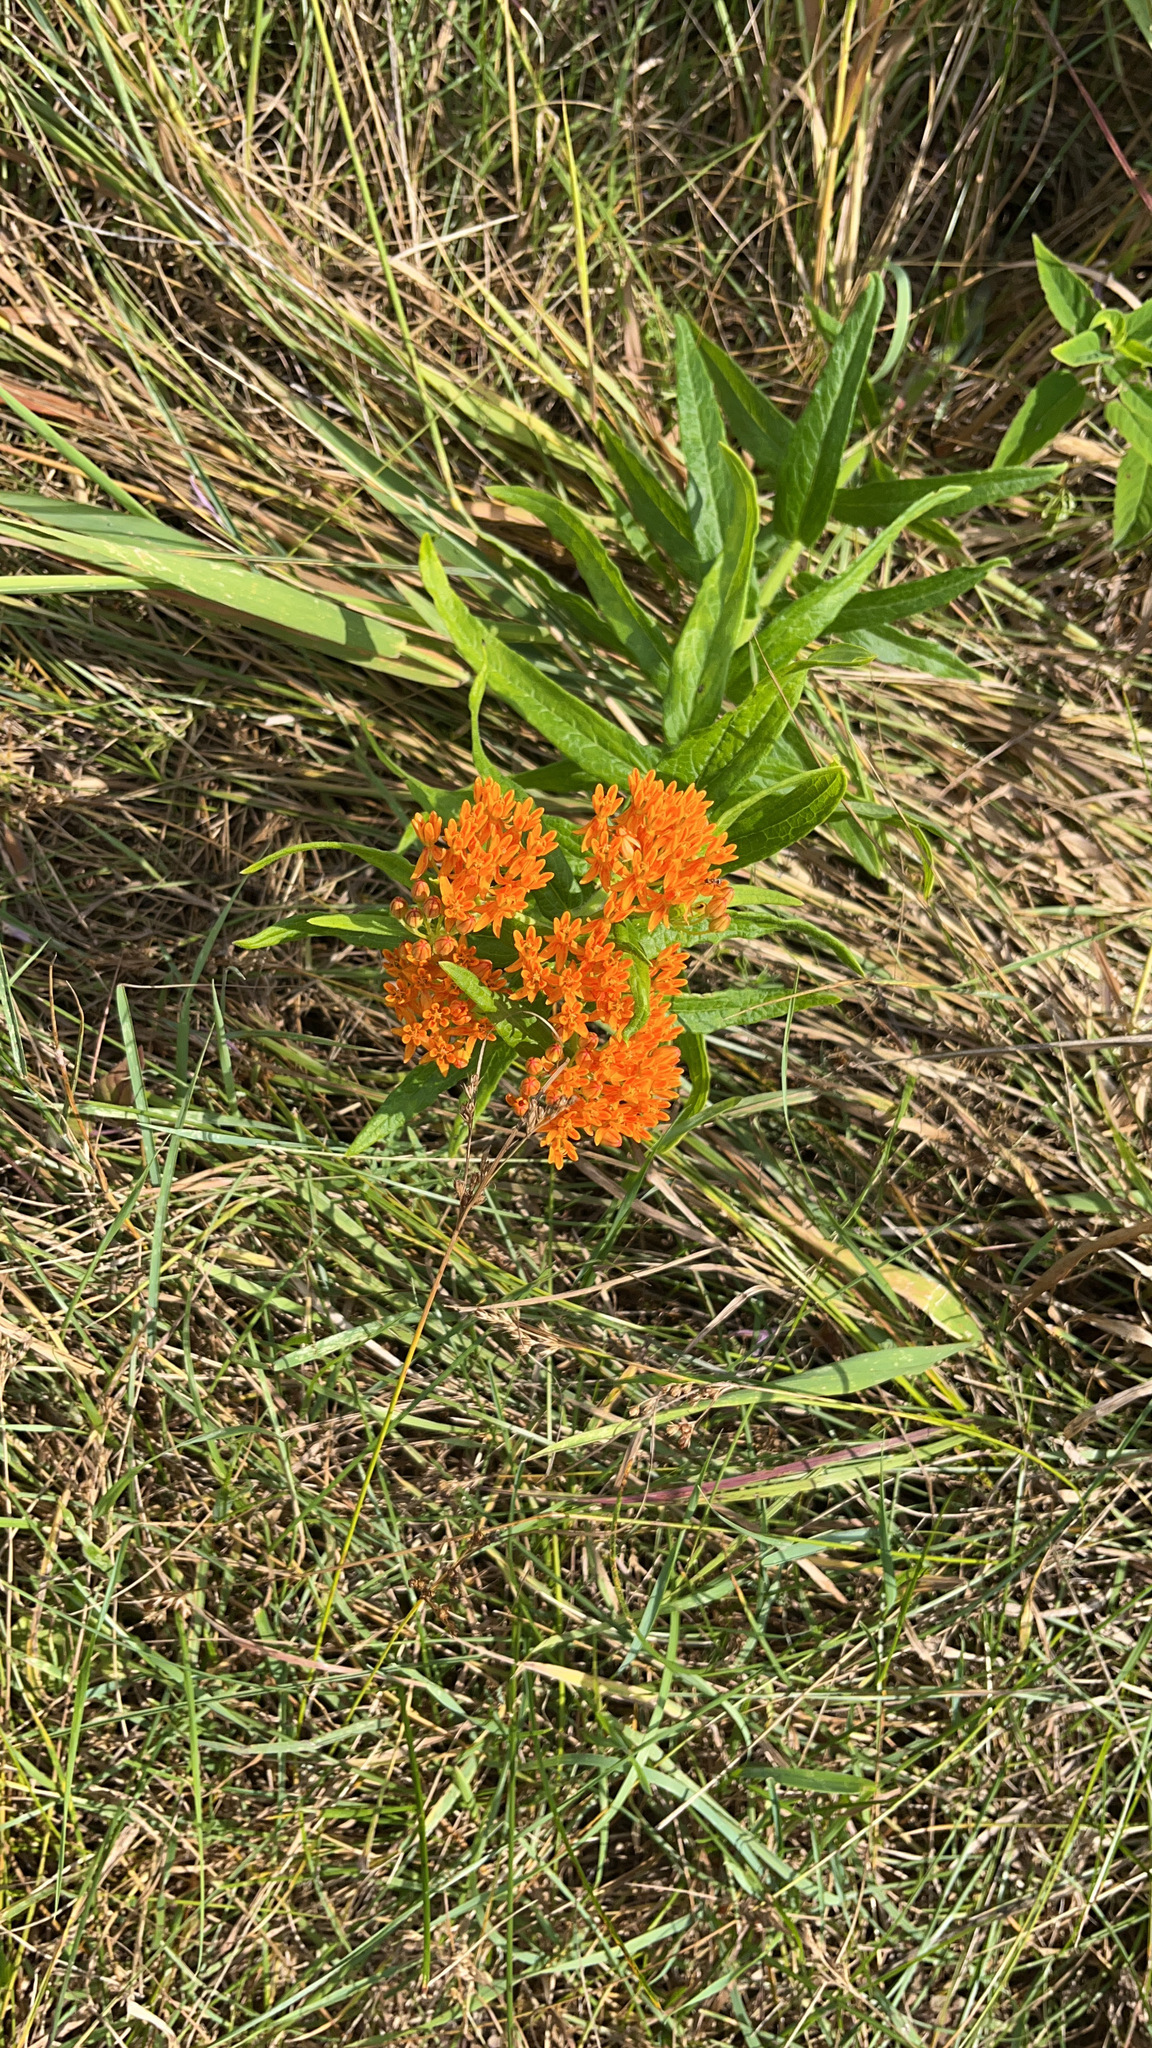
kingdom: Plantae
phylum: Tracheophyta
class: Magnoliopsida
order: Gentianales
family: Apocynaceae
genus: Asclepias
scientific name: Asclepias tuberosa
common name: Butterfly milkweed
